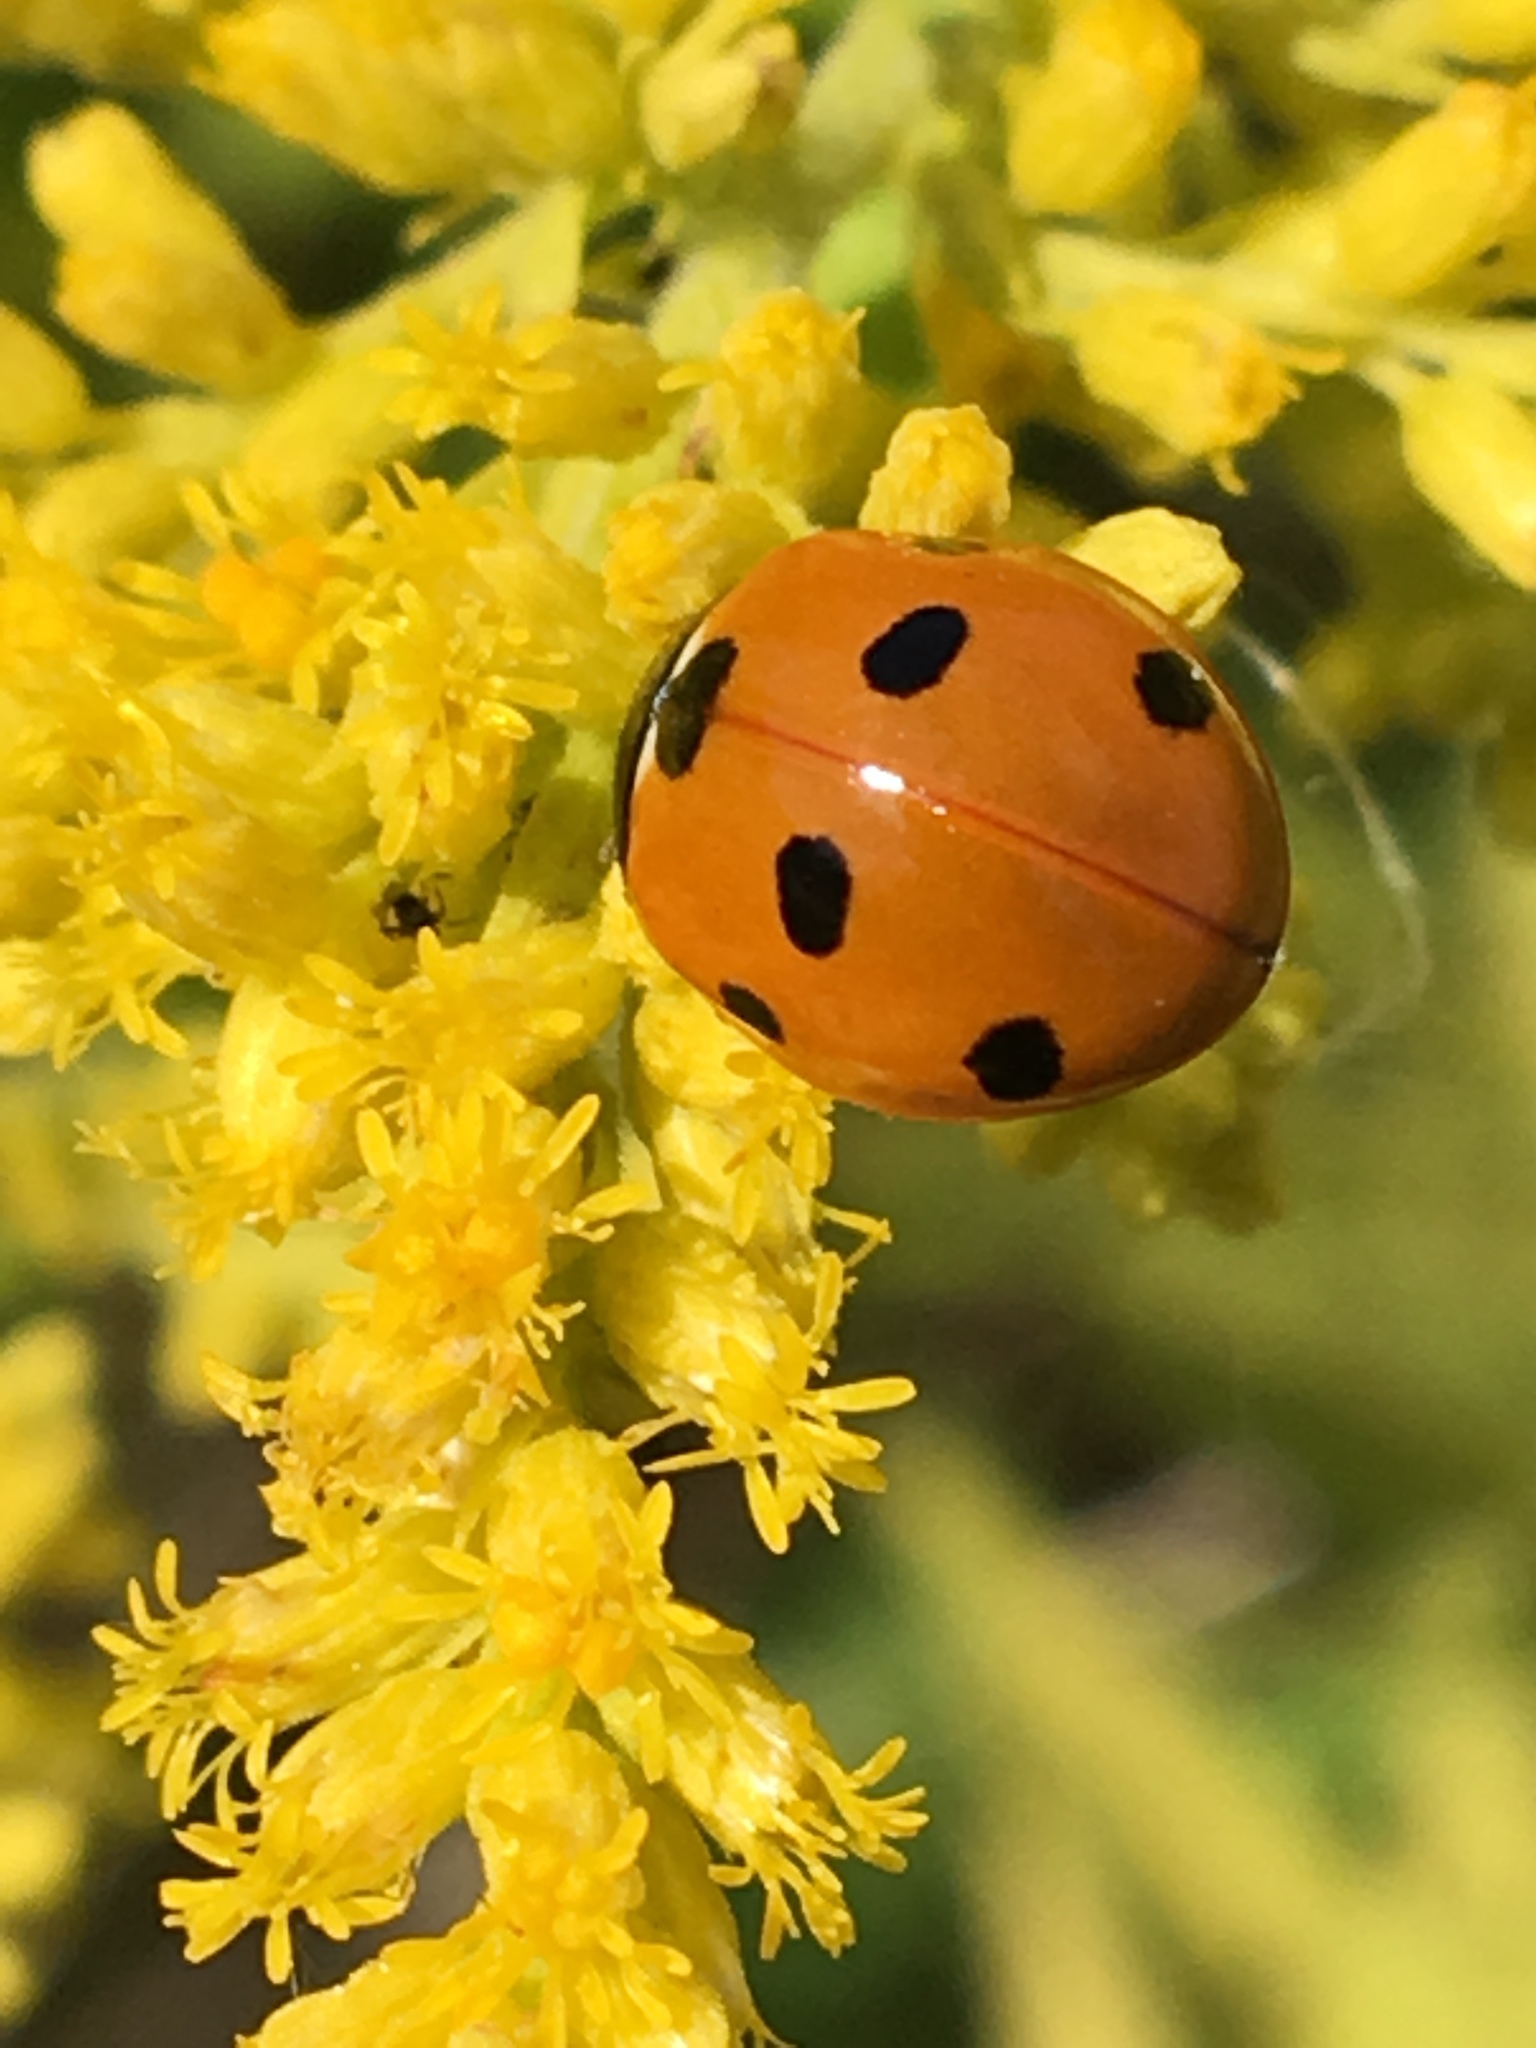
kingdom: Animalia
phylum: Arthropoda
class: Insecta
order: Coleoptera
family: Coccinellidae
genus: Coccinella
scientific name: Coccinella septempunctata
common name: Sevenspotted lady beetle
